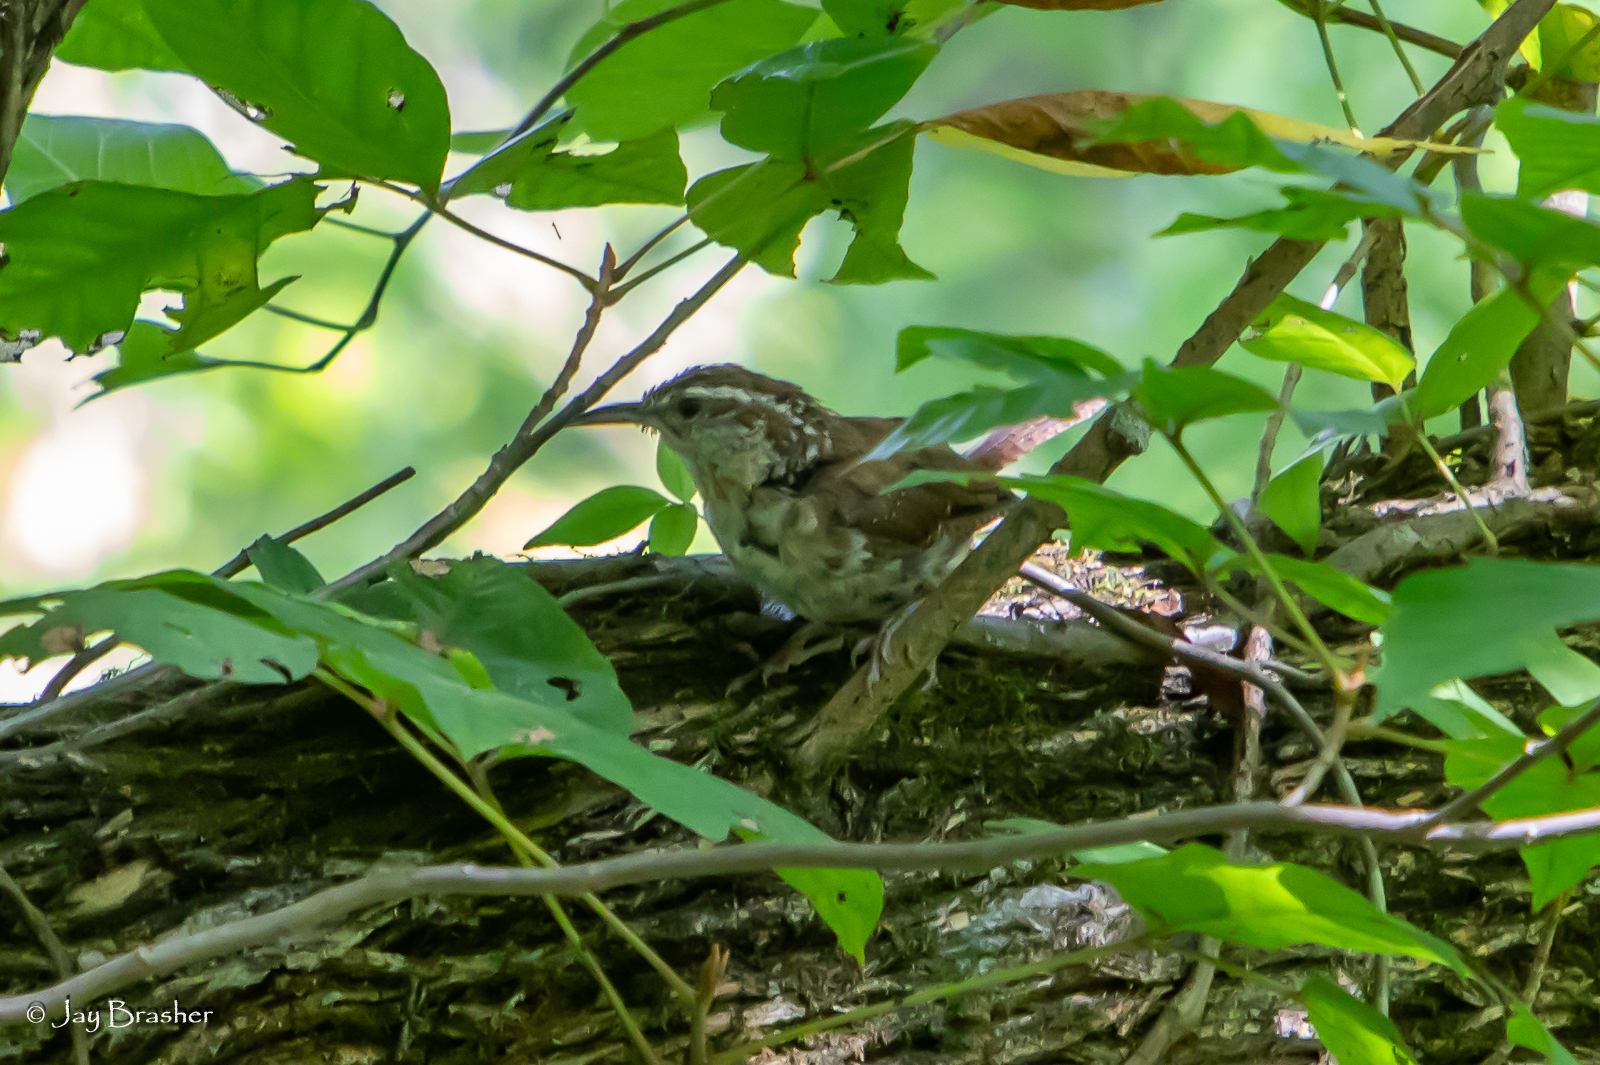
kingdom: Animalia
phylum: Chordata
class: Aves
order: Passeriformes
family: Troglodytidae
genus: Thryothorus
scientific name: Thryothorus ludovicianus
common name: Carolina wren
